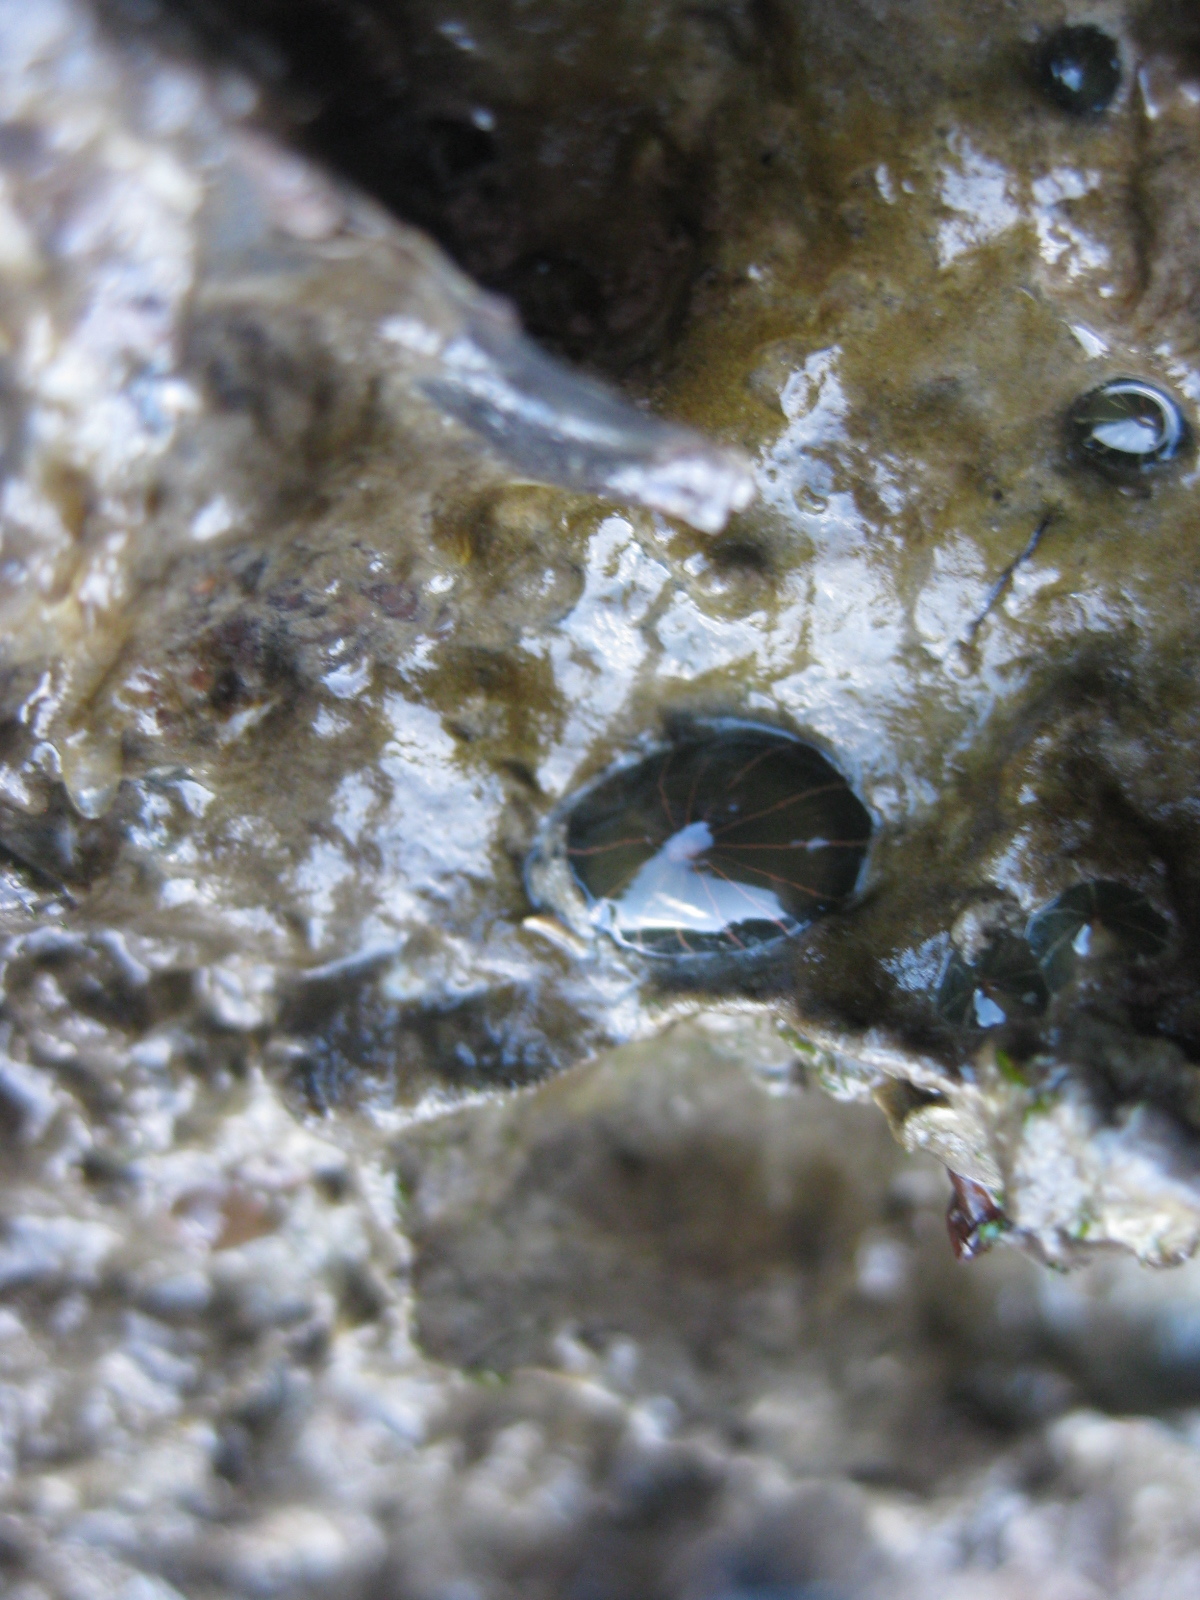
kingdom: Animalia
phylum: Cnidaria
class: Anthozoa
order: Actiniaria
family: Diadumenidae
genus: Diadumene
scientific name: Diadumene lineata
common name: Orange-striped anemone
